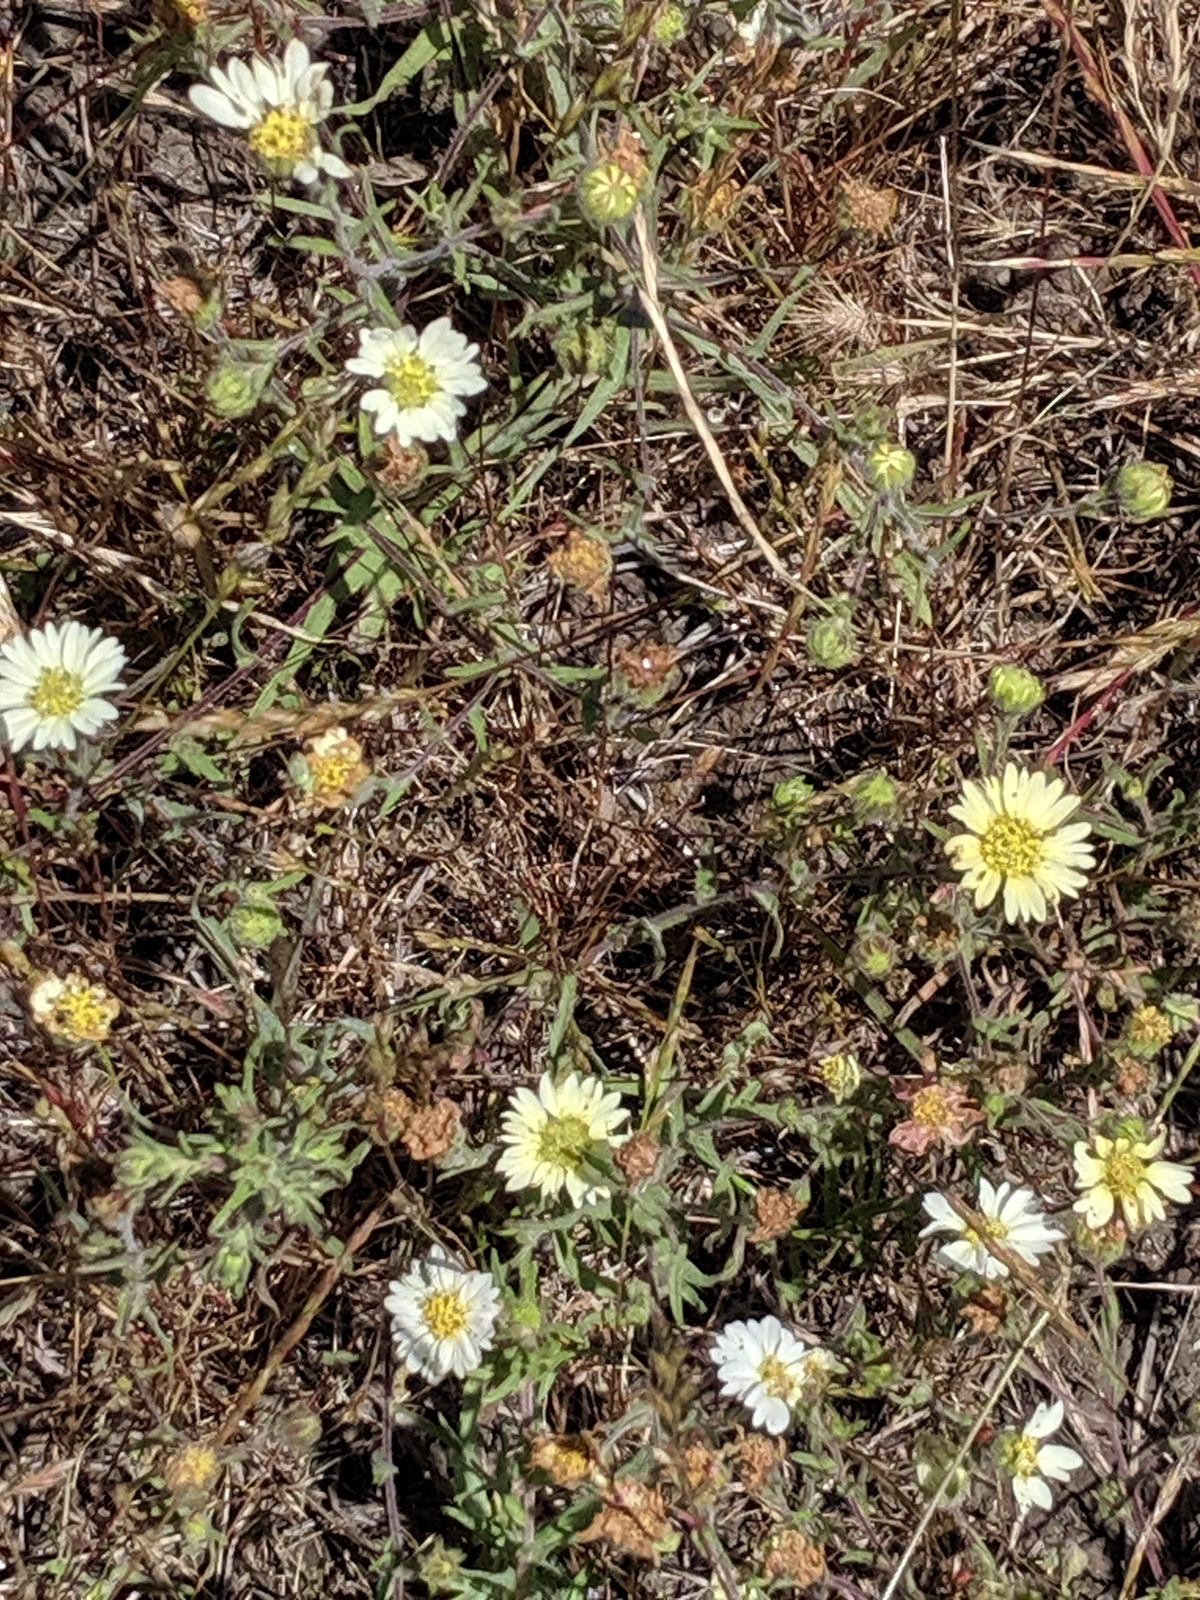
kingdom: Plantae
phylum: Tracheophyta
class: Magnoliopsida
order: Asterales
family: Asteraceae
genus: Hemizonia
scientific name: Hemizonia congesta
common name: Hayfield tarweed
